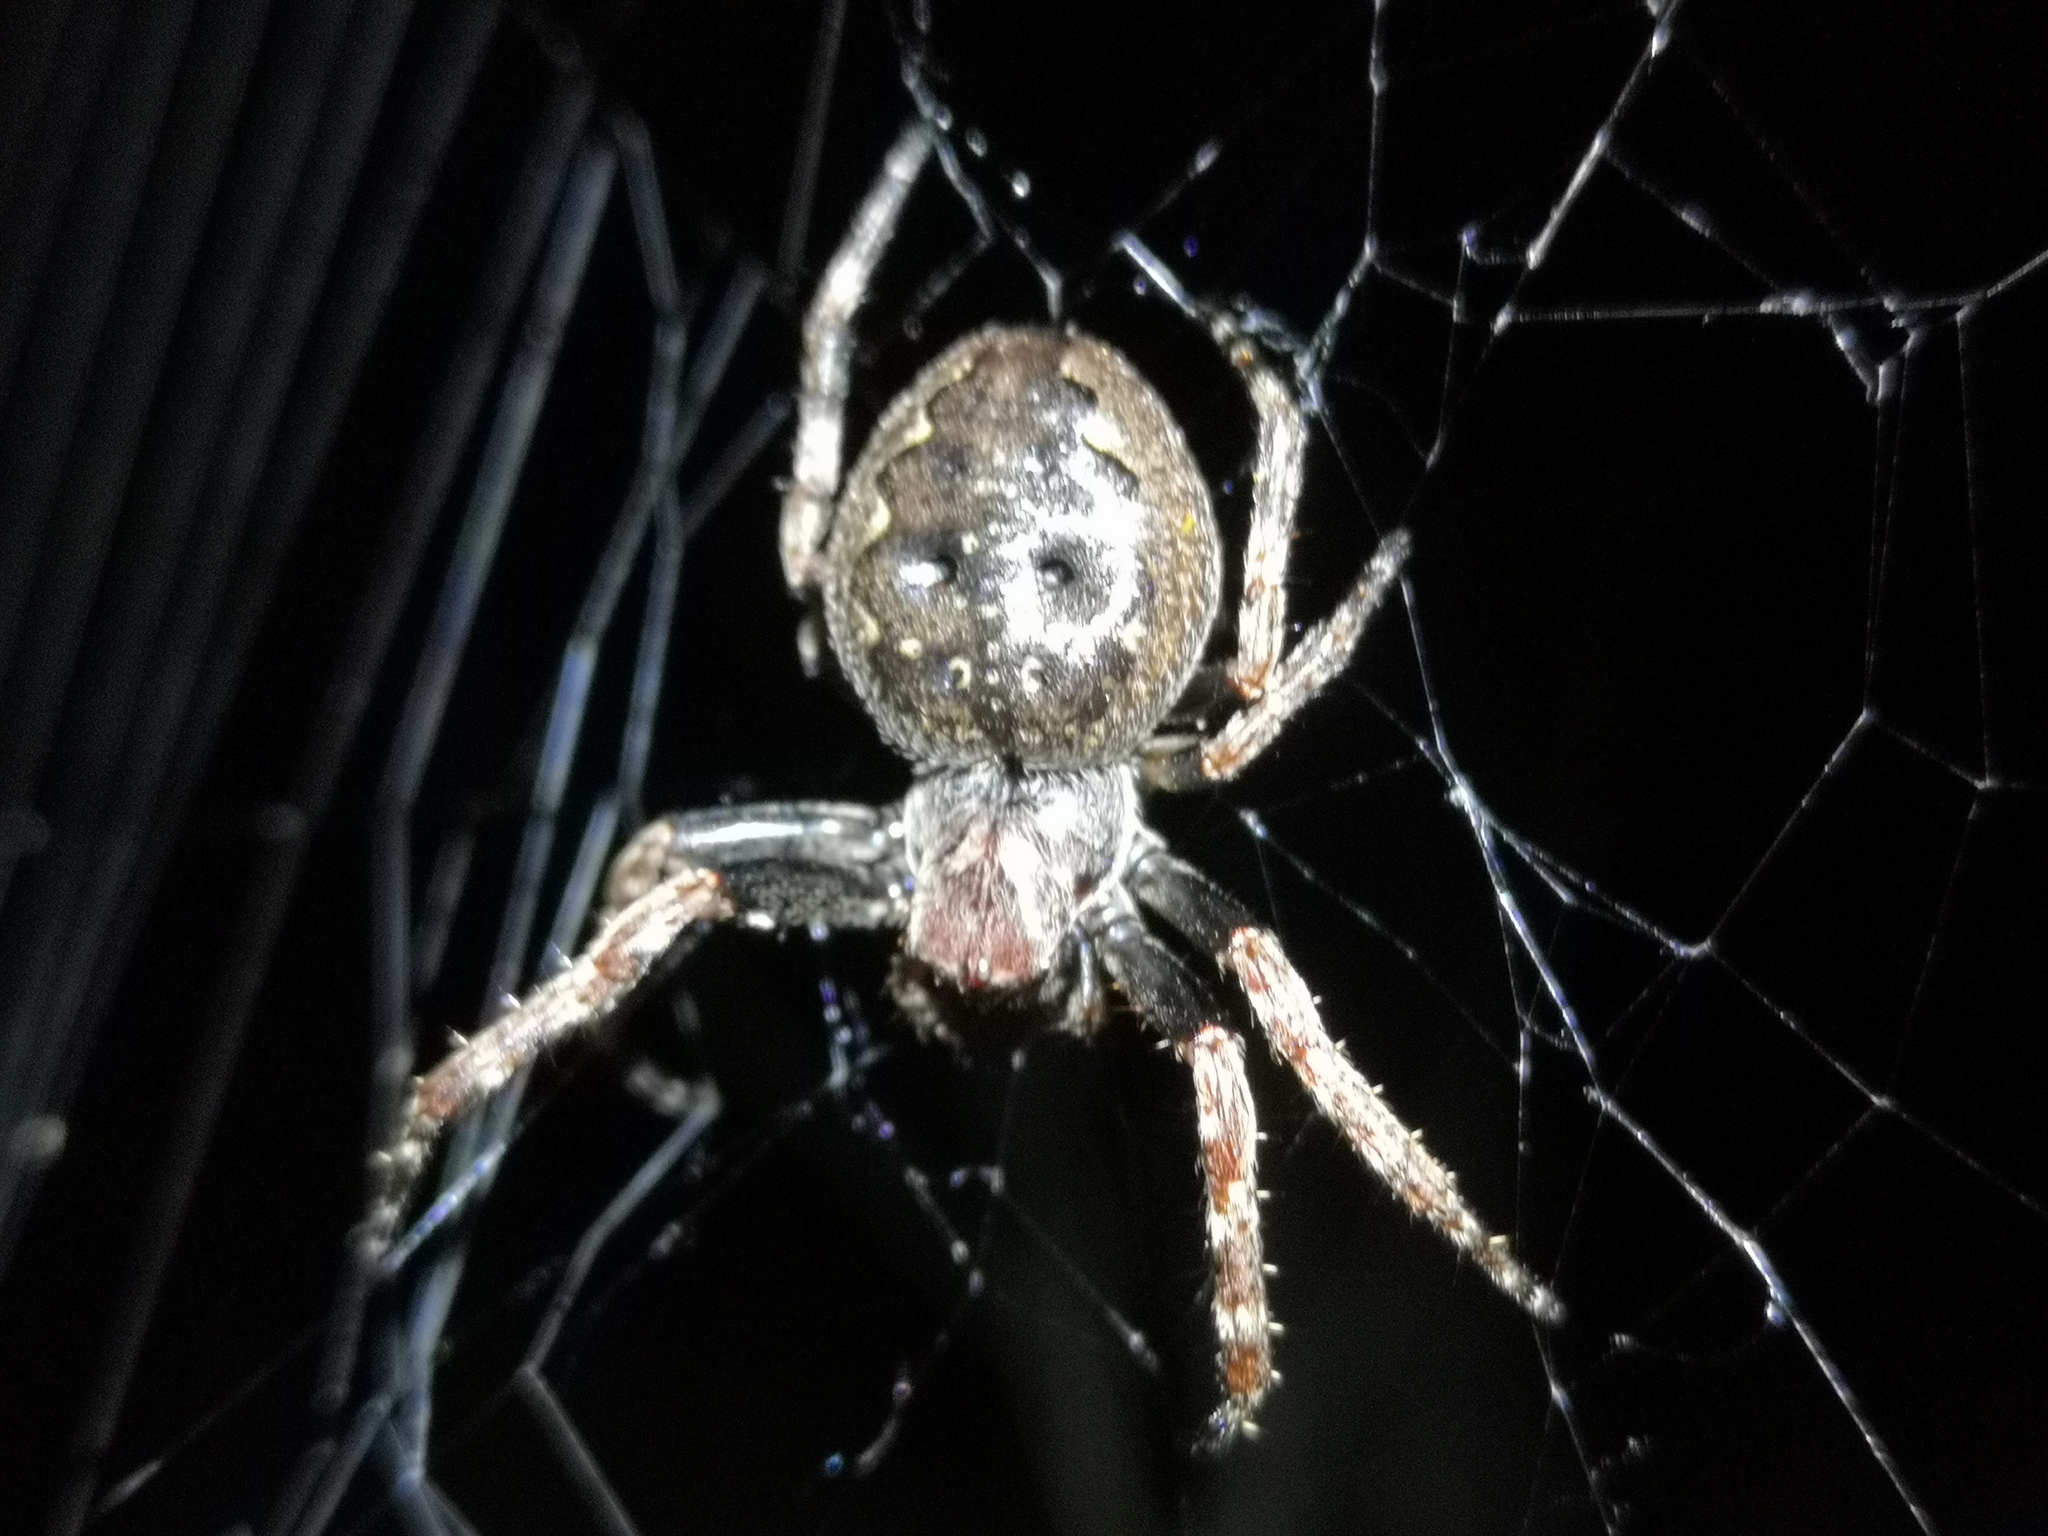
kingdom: Animalia
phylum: Arthropoda
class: Arachnida
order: Araneae
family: Araneidae
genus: Nuctenea
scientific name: Nuctenea umbratica
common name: Toad spider
